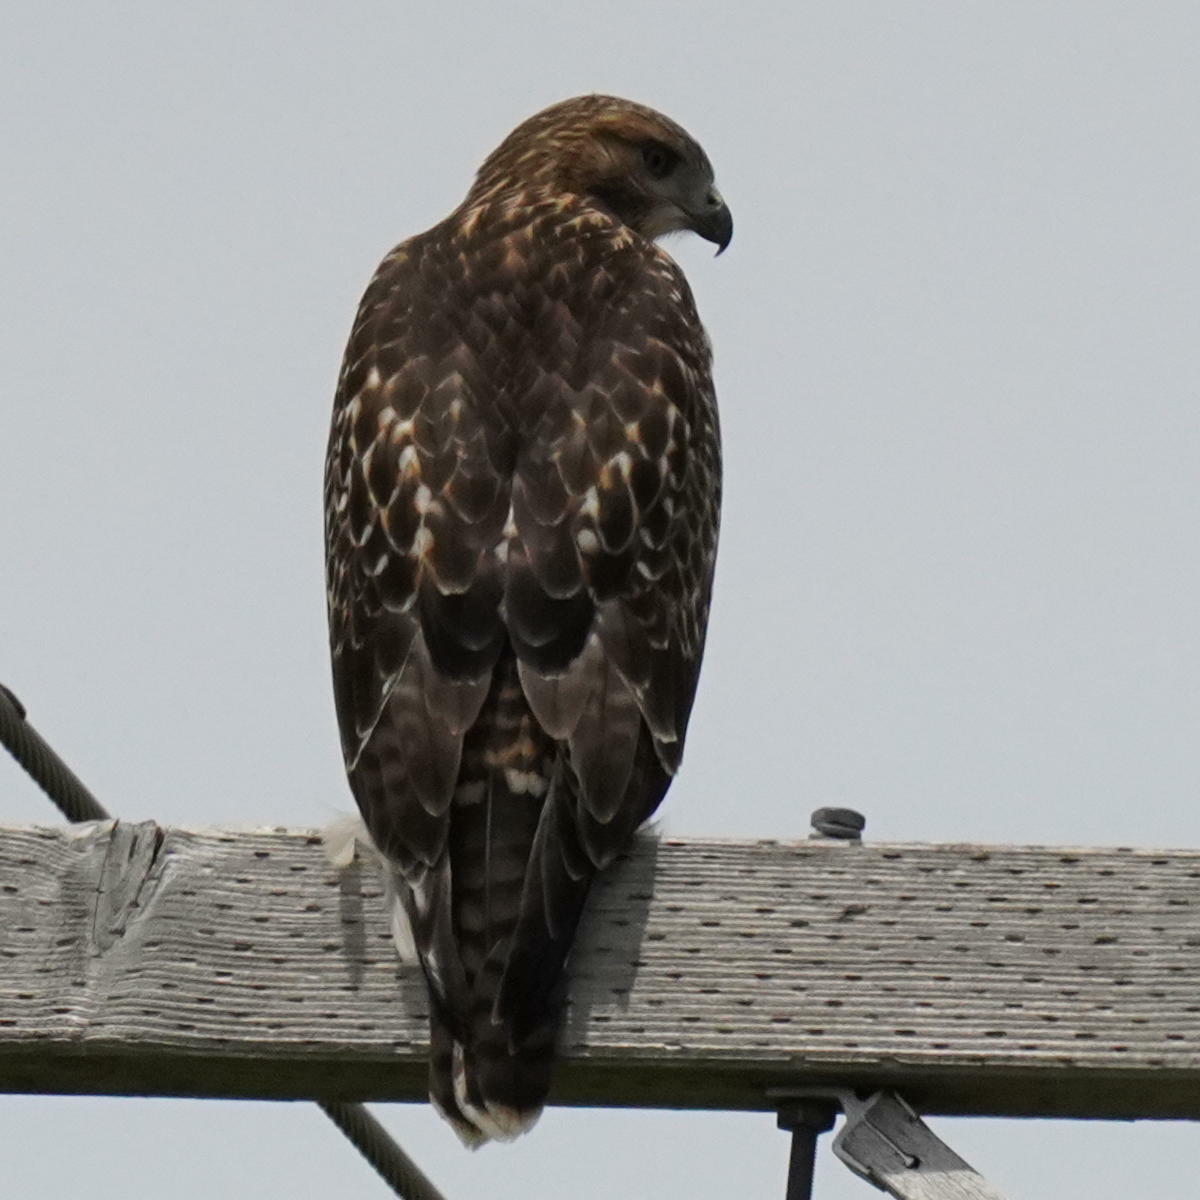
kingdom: Animalia
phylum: Chordata
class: Aves
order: Accipitriformes
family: Accipitridae
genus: Buteo
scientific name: Buteo jamaicensis
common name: Red-tailed hawk
